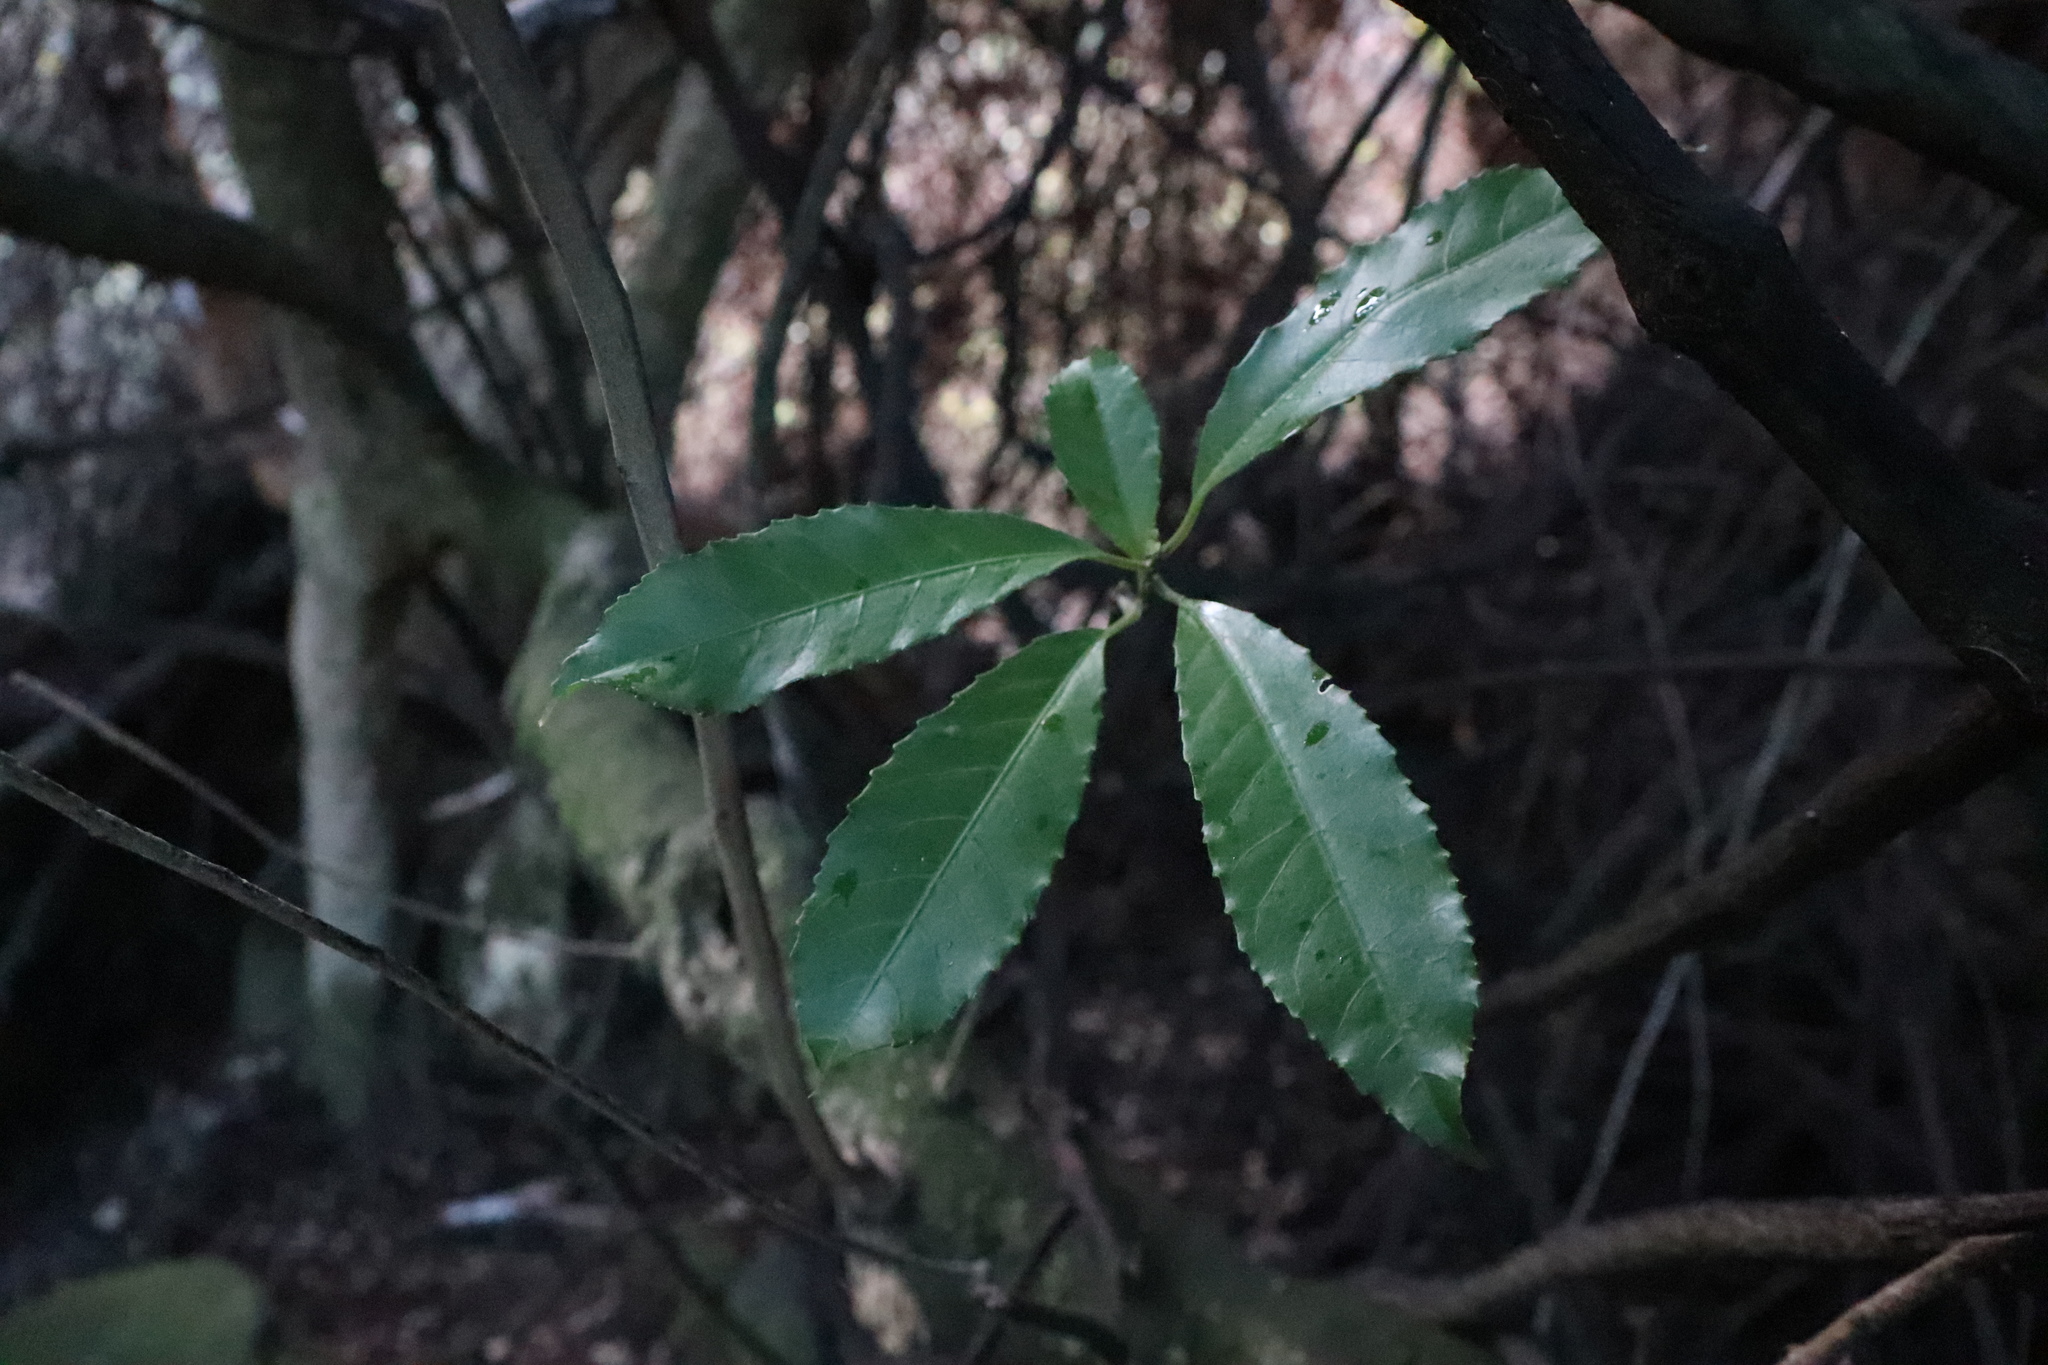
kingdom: Plantae
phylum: Tracheophyta
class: Magnoliopsida
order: Malpighiales
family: Violaceae
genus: Melicytus
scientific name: Melicytus ramiflorus
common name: Mahoe
